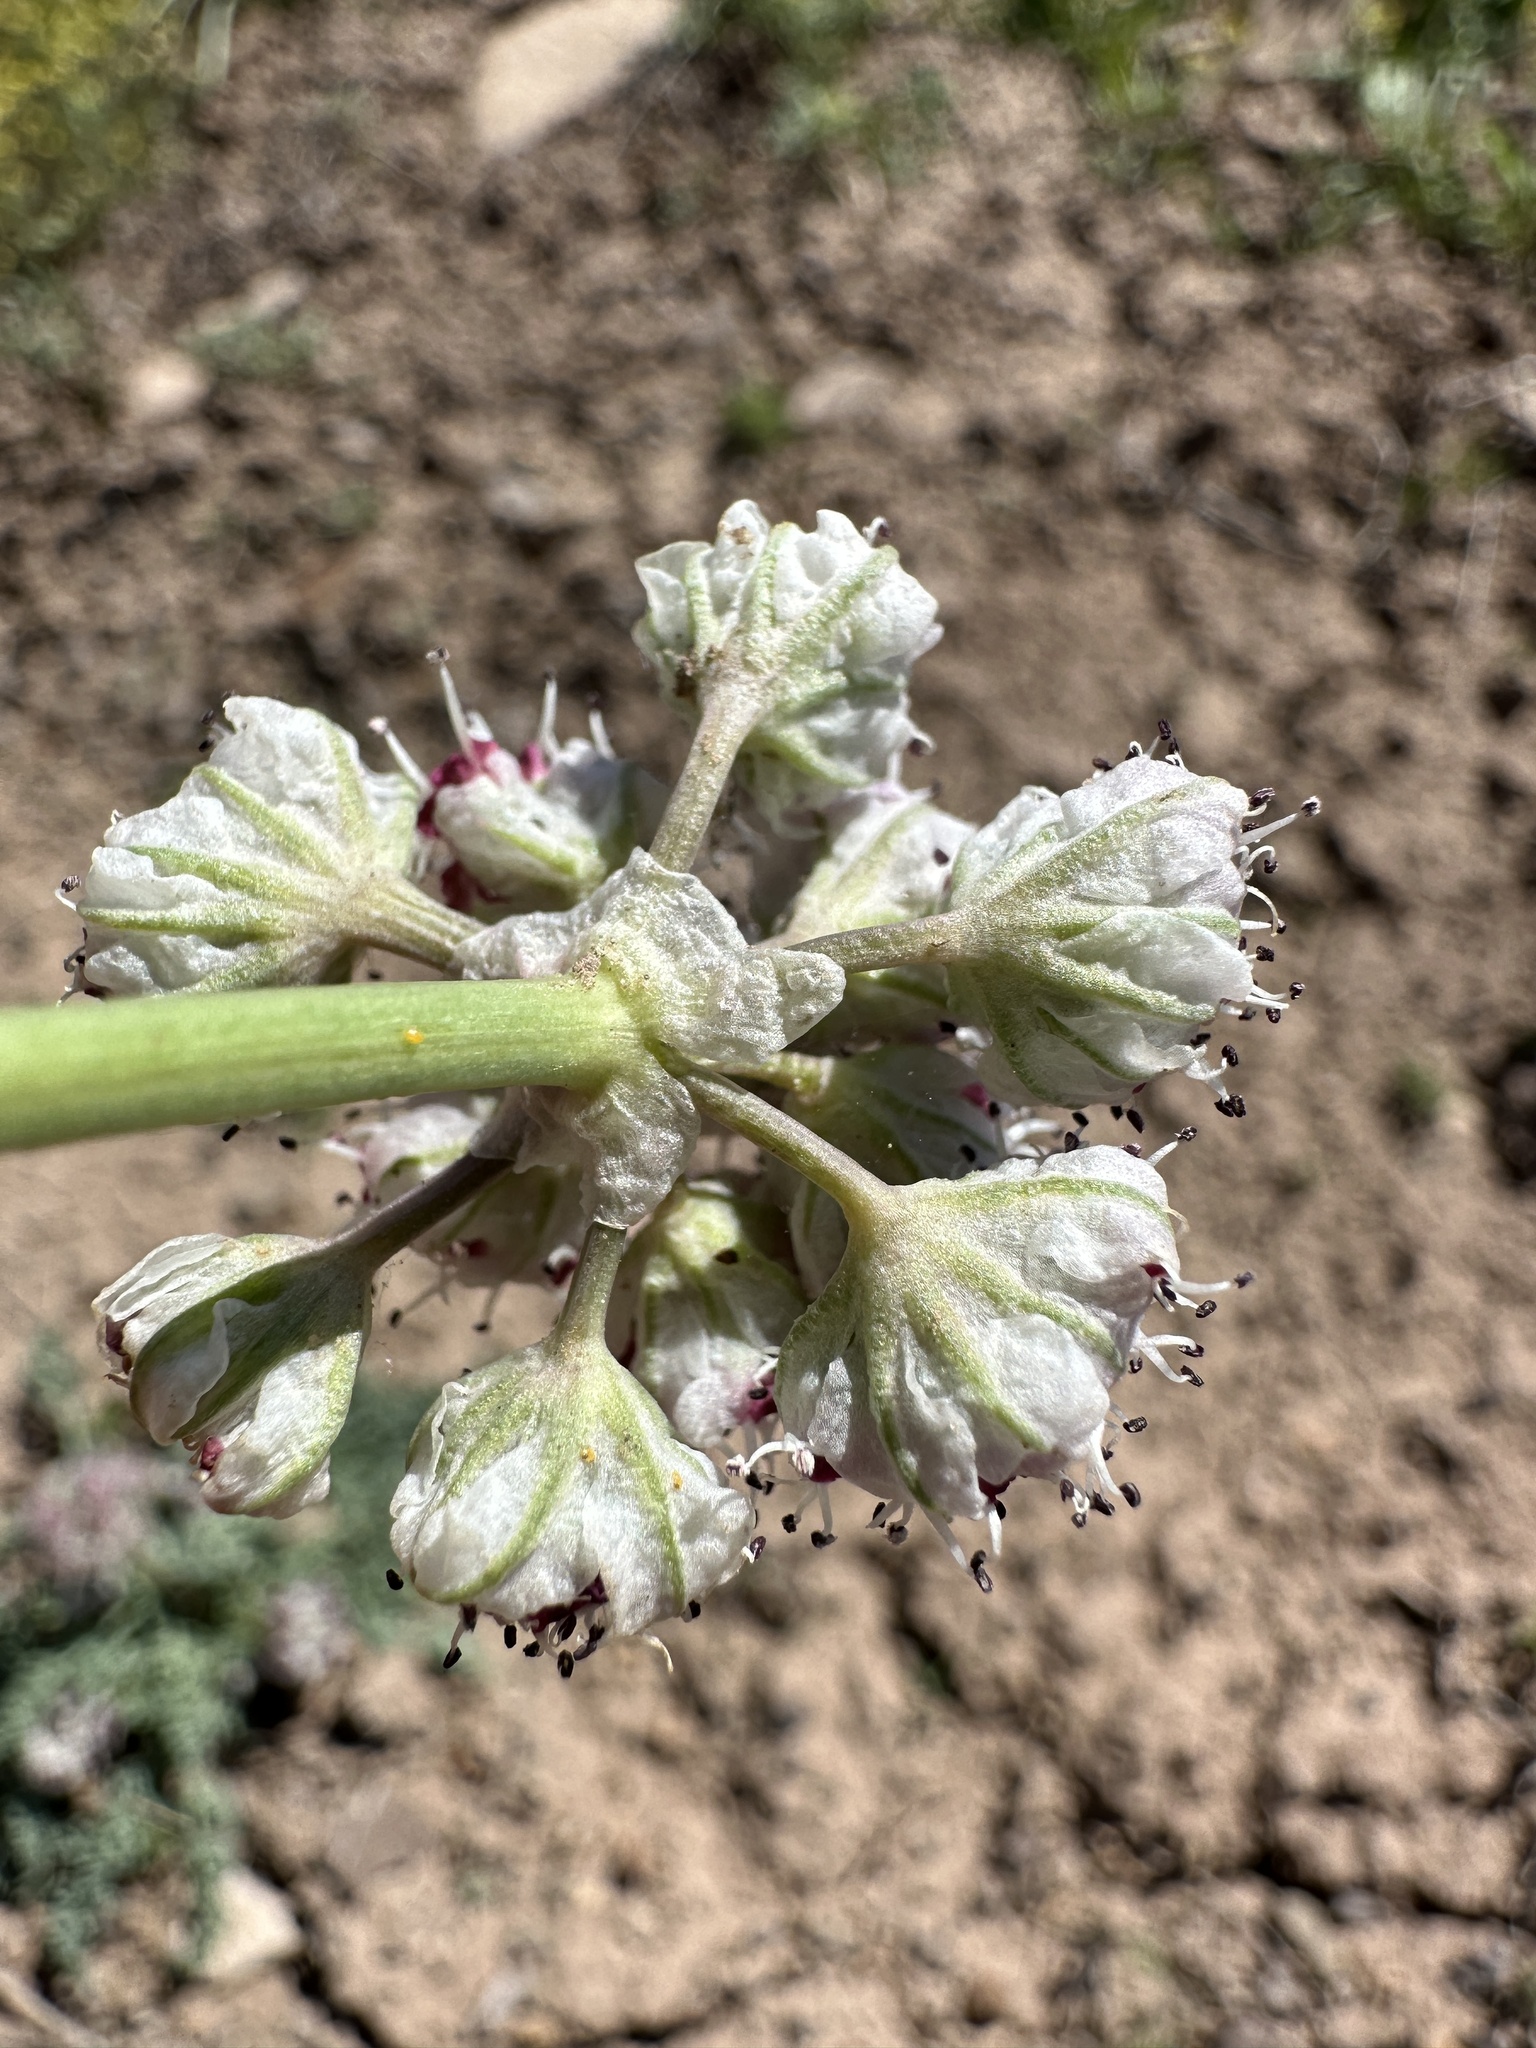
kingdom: Plantae
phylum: Tracheophyta
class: Magnoliopsida
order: Apiales
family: Apiaceae
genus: Vesper
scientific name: Vesper bulbosus
